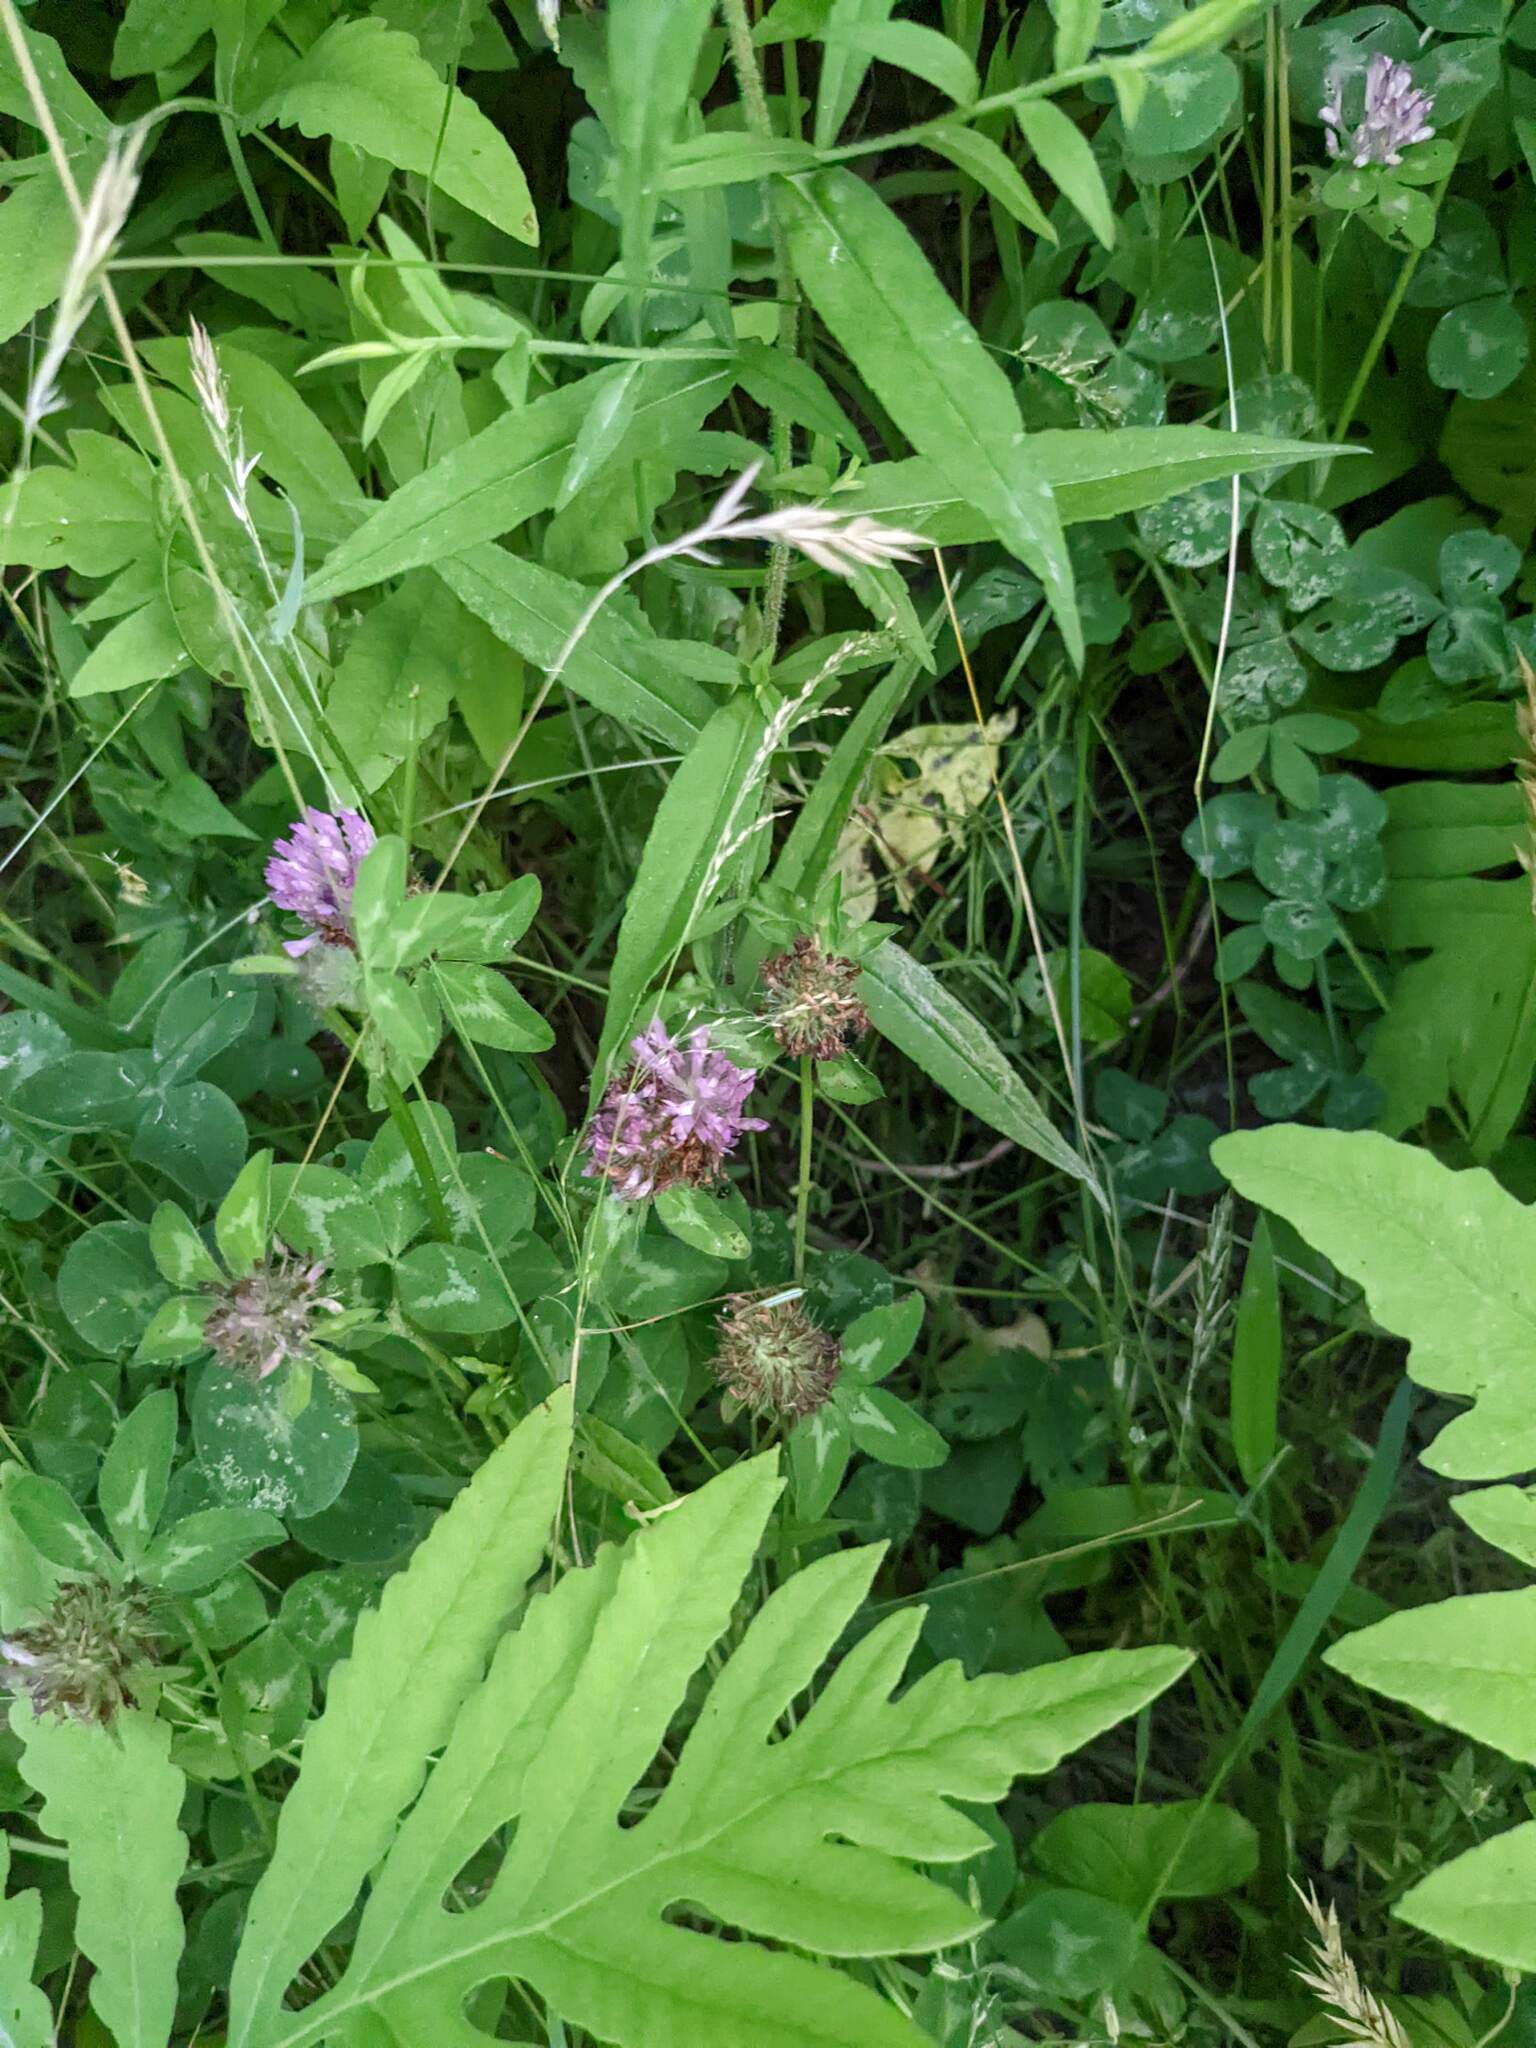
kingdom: Plantae
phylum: Tracheophyta
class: Magnoliopsida
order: Fabales
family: Fabaceae
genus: Trifolium
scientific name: Trifolium pratense
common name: Red clover
